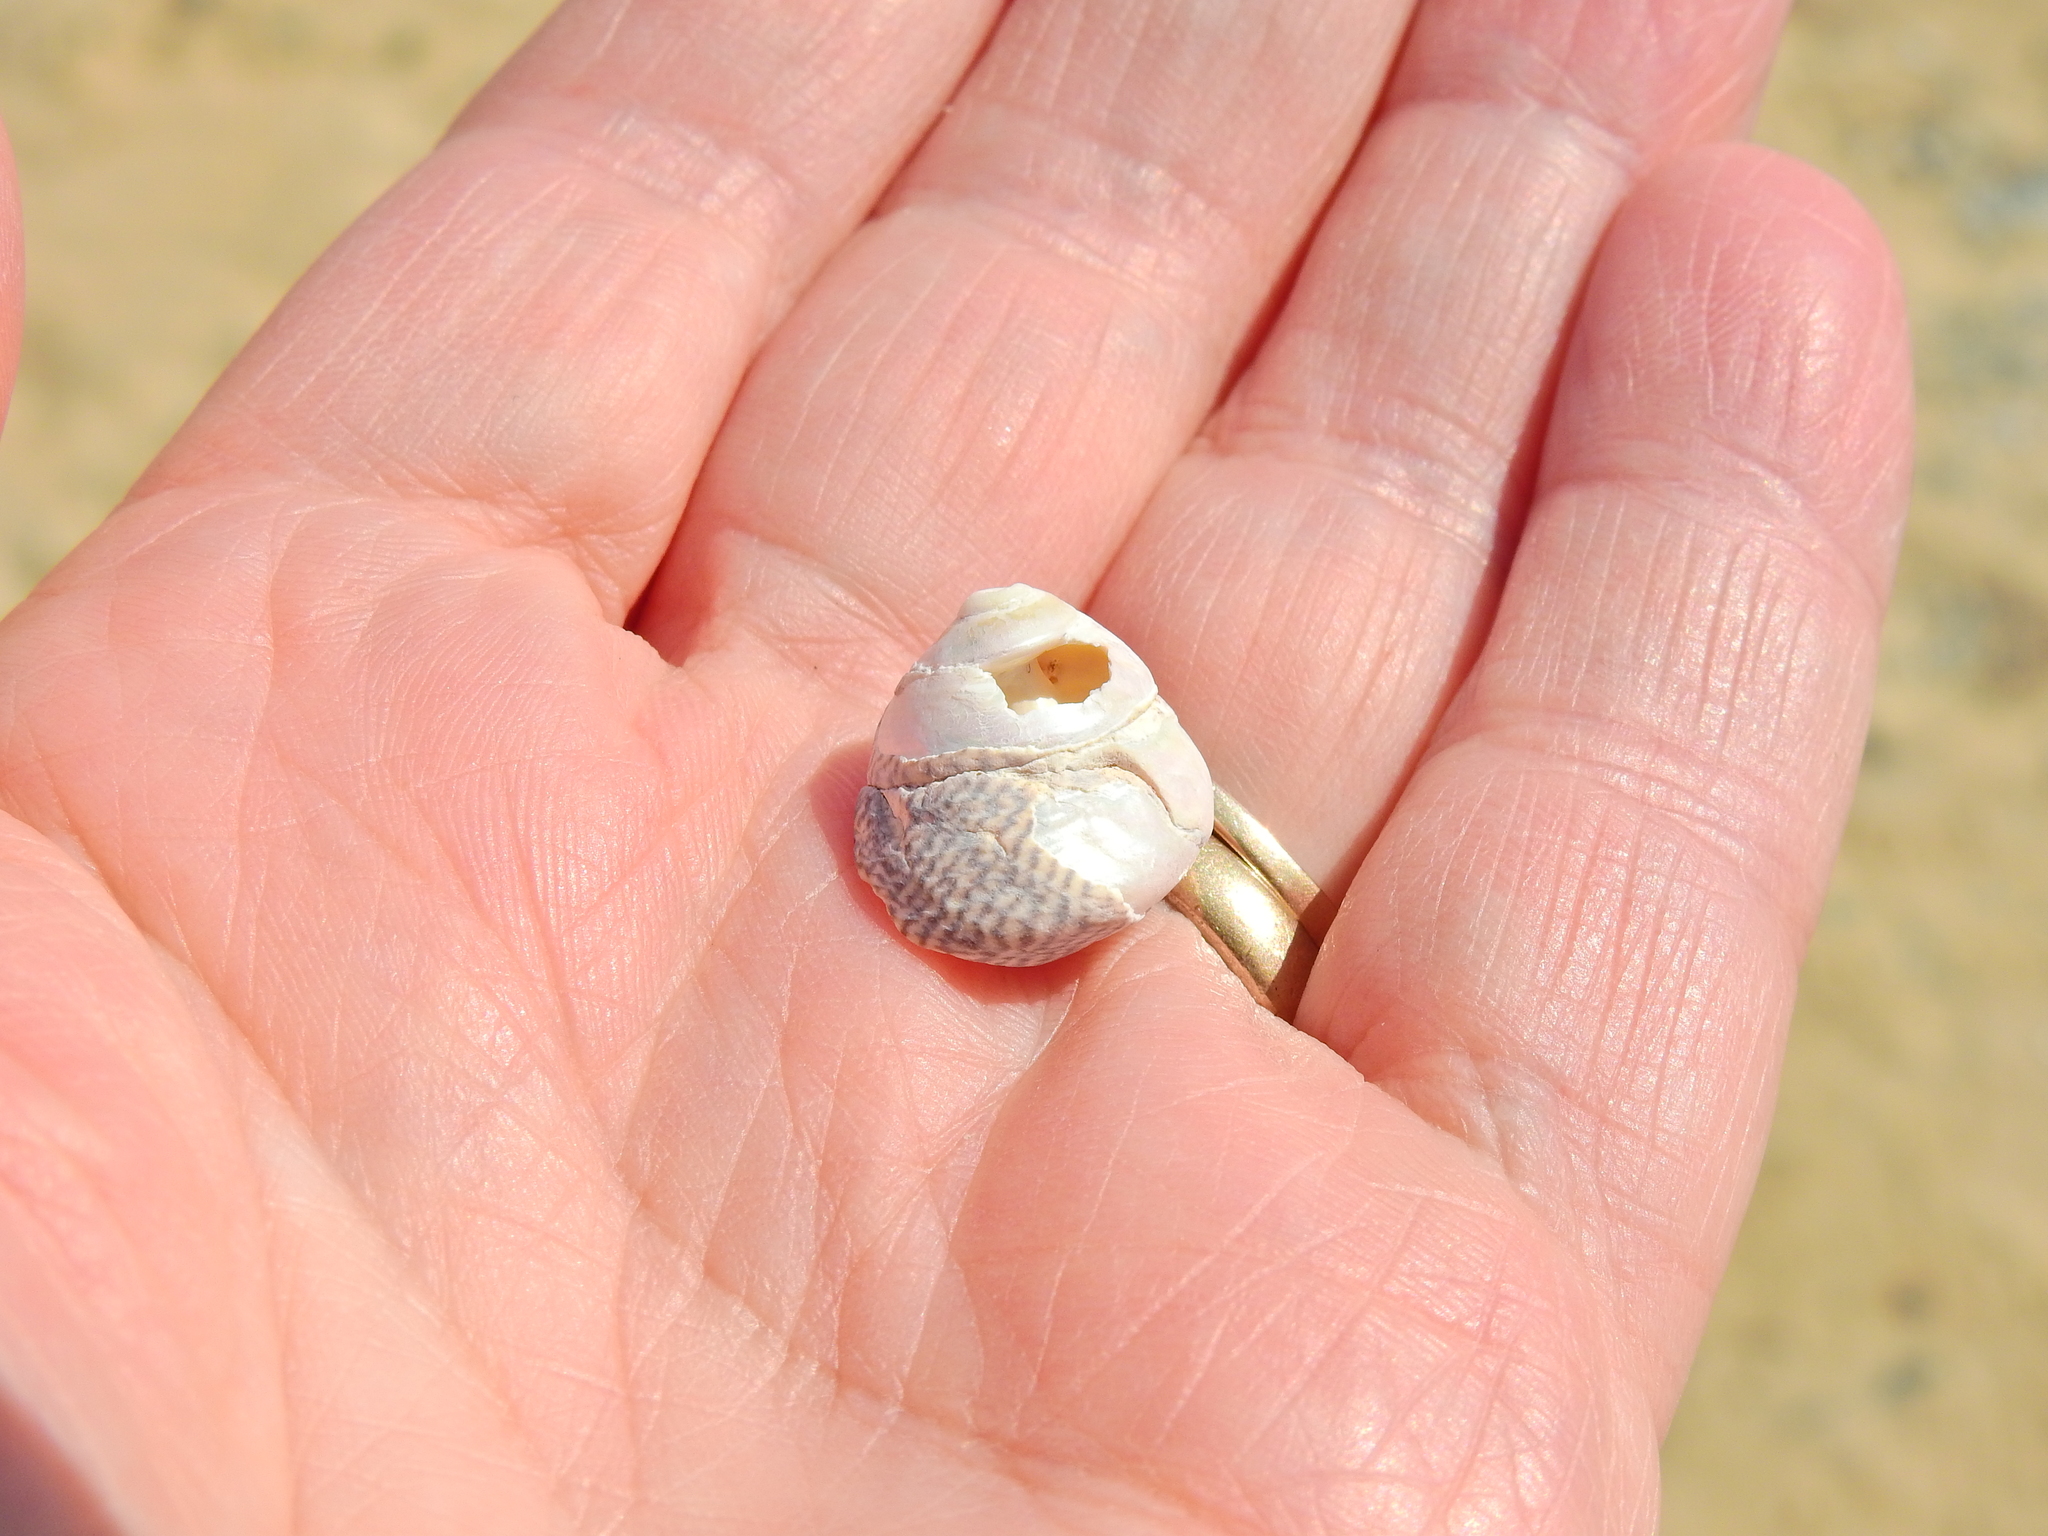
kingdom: Animalia
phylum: Mollusca
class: Gastropoda
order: Trochida
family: Trochidae
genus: Steromphala
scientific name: Steromphala cineraria
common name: Grey top shell
